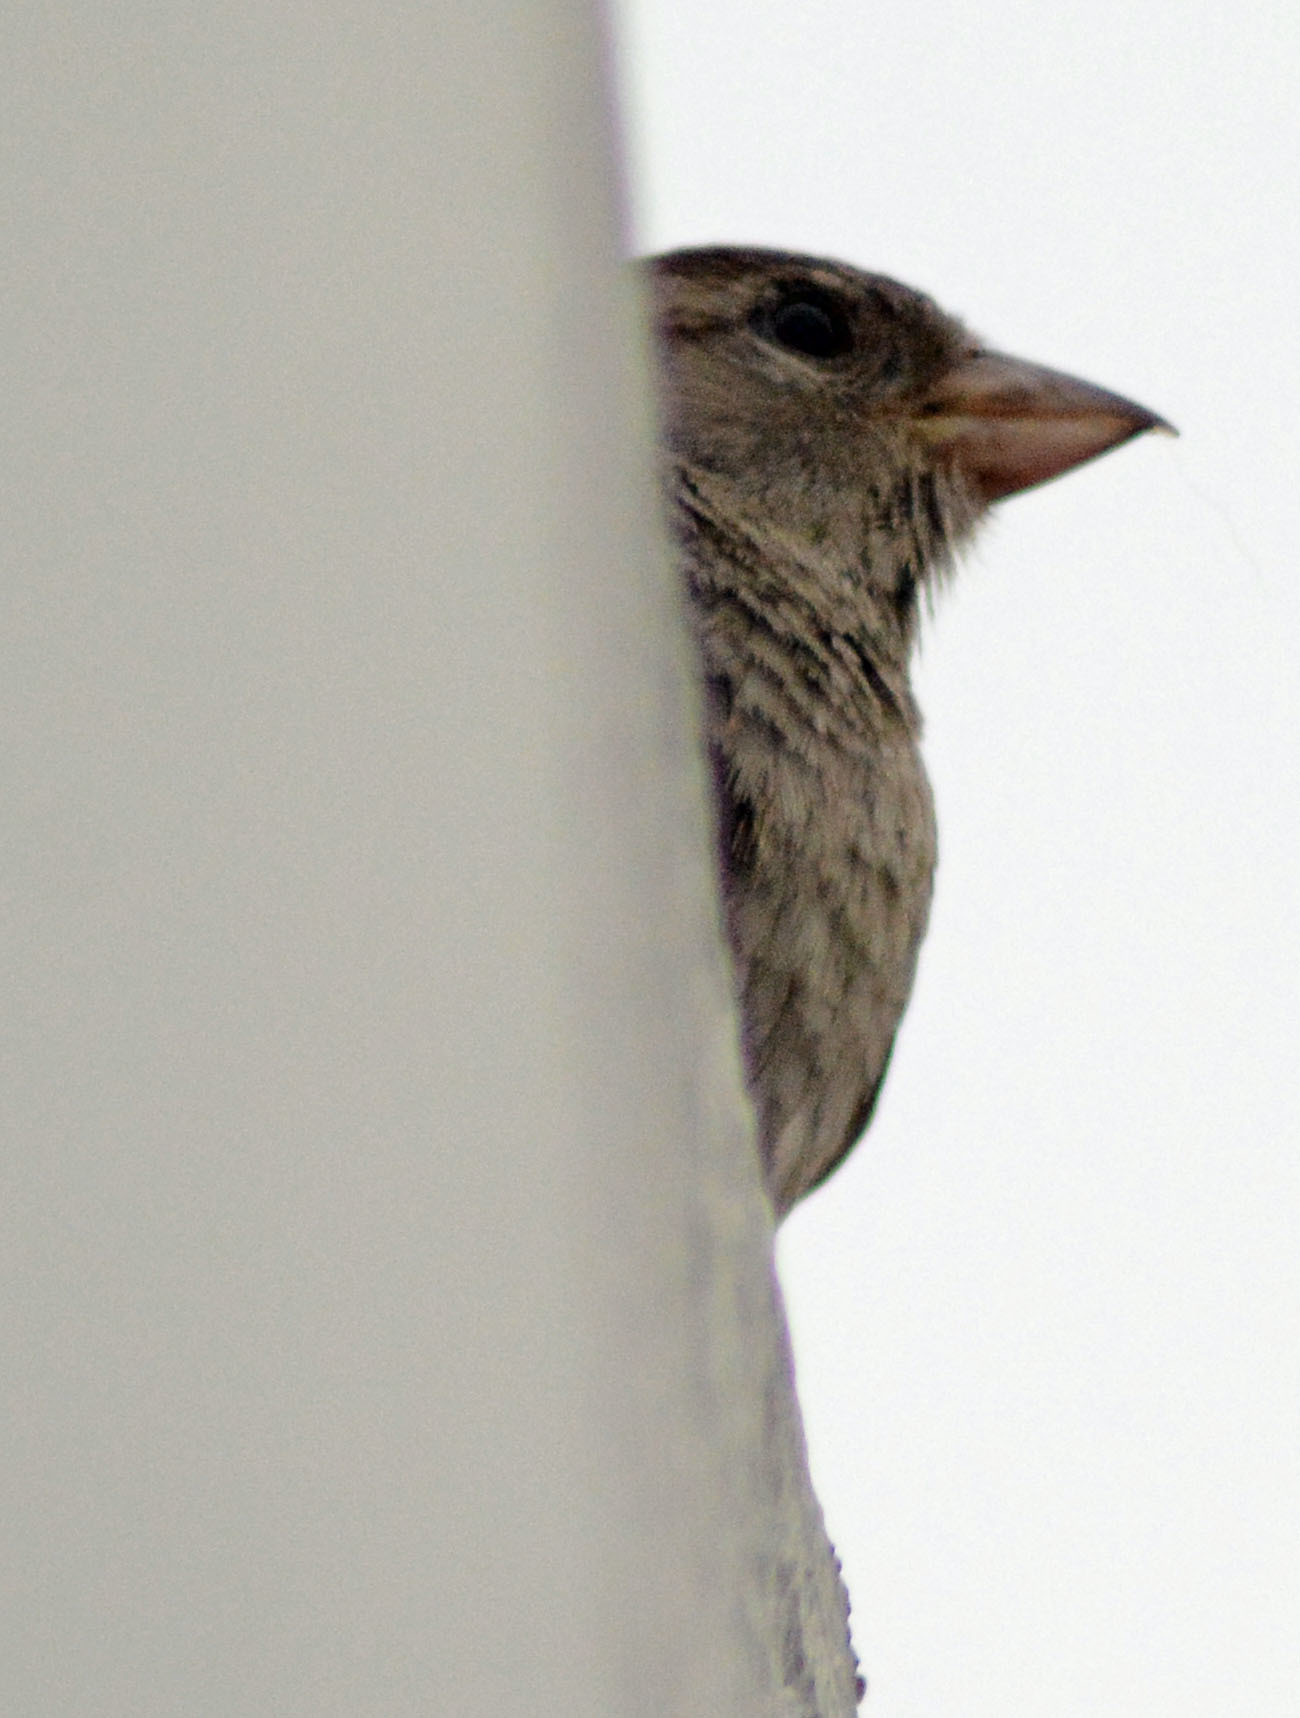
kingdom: Animalia
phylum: Chordata
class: Aves
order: Passeriformes
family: Passeridae
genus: Passer
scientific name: Passer domesticus
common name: House sparrow
